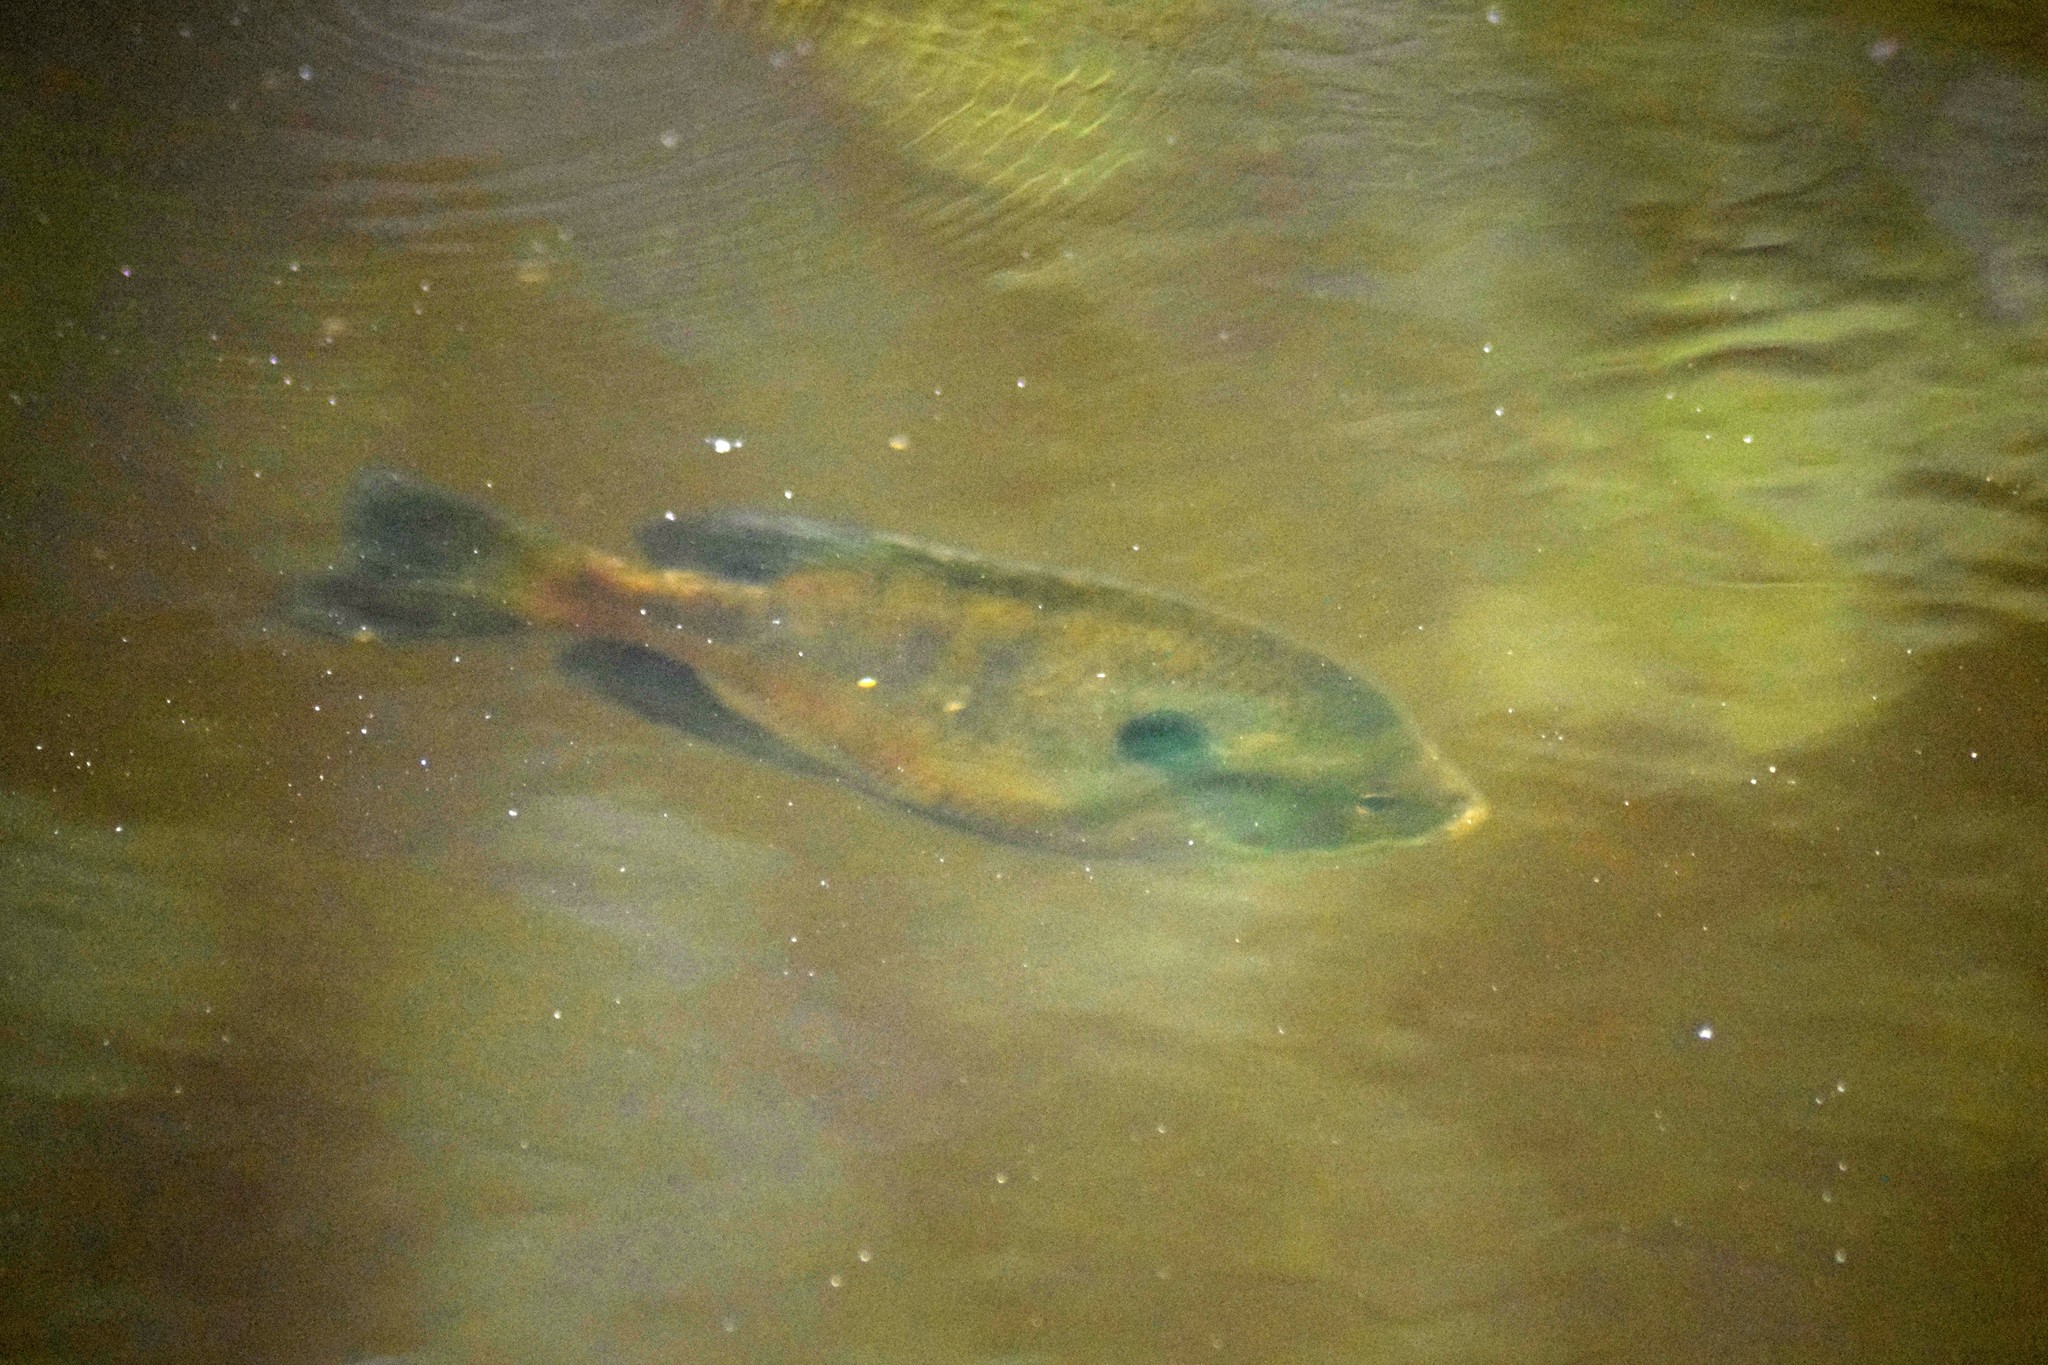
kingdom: Animalia
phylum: Chordata
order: Perciformes
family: Centrarchidae
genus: Lepomis
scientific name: Lepomis macrochirus
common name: Bluegill
